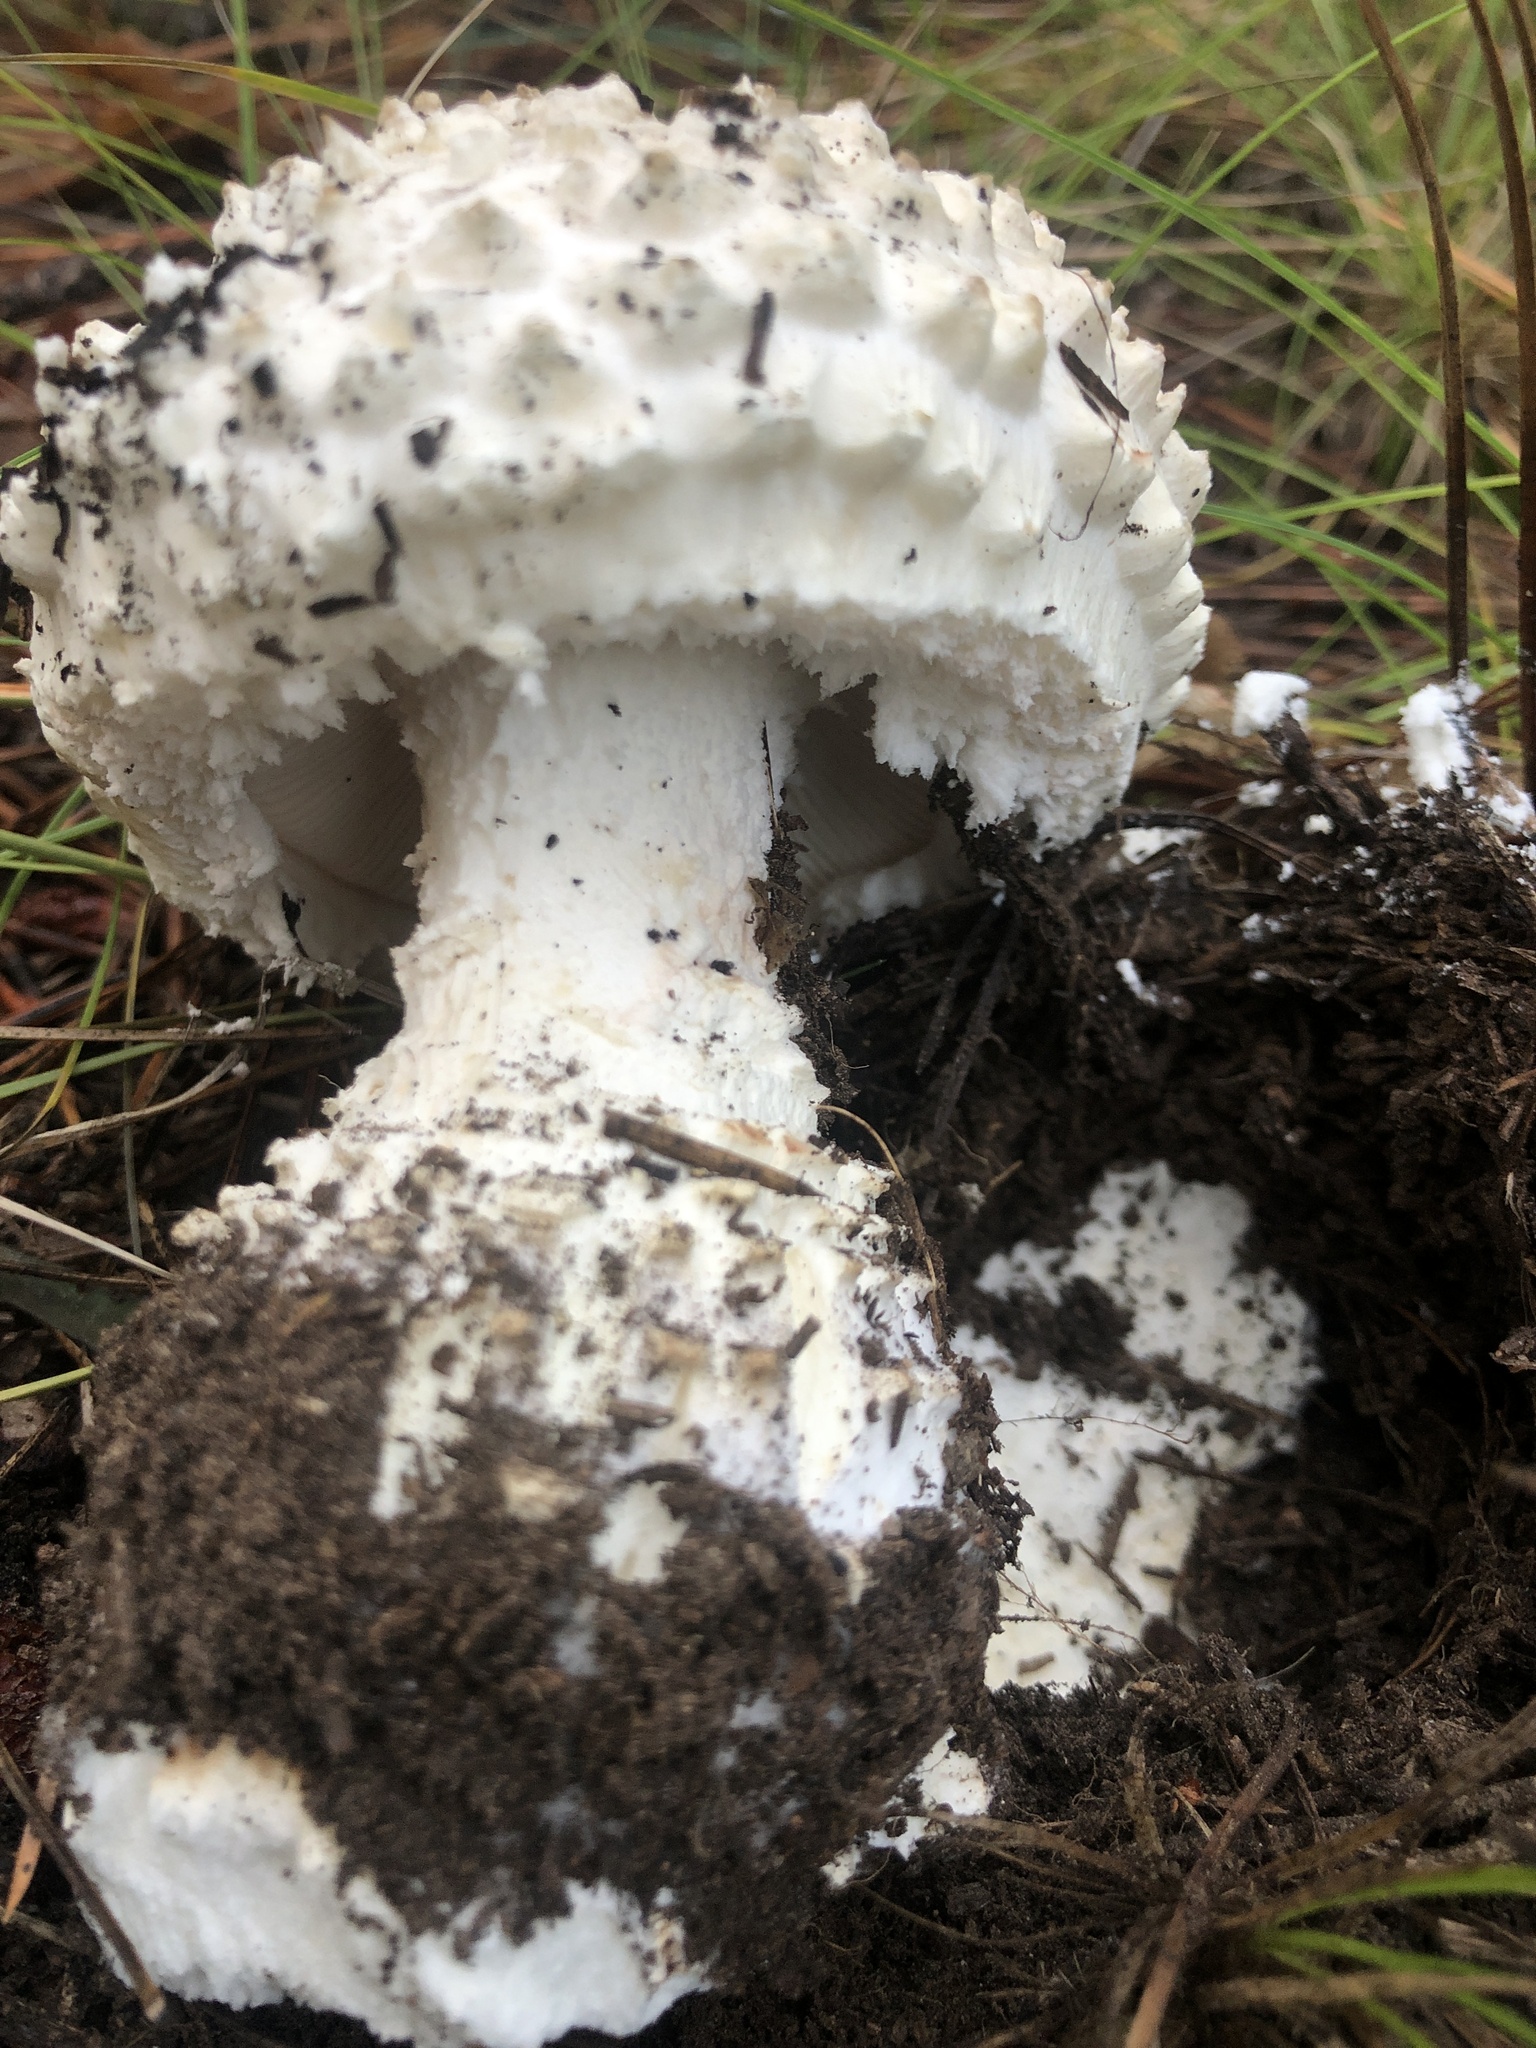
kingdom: Fungi
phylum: Basidiomycota
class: Agaricomycetes
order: Agaricales
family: Amanitaceae
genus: Amanita
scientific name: Amanita magniverrucata
